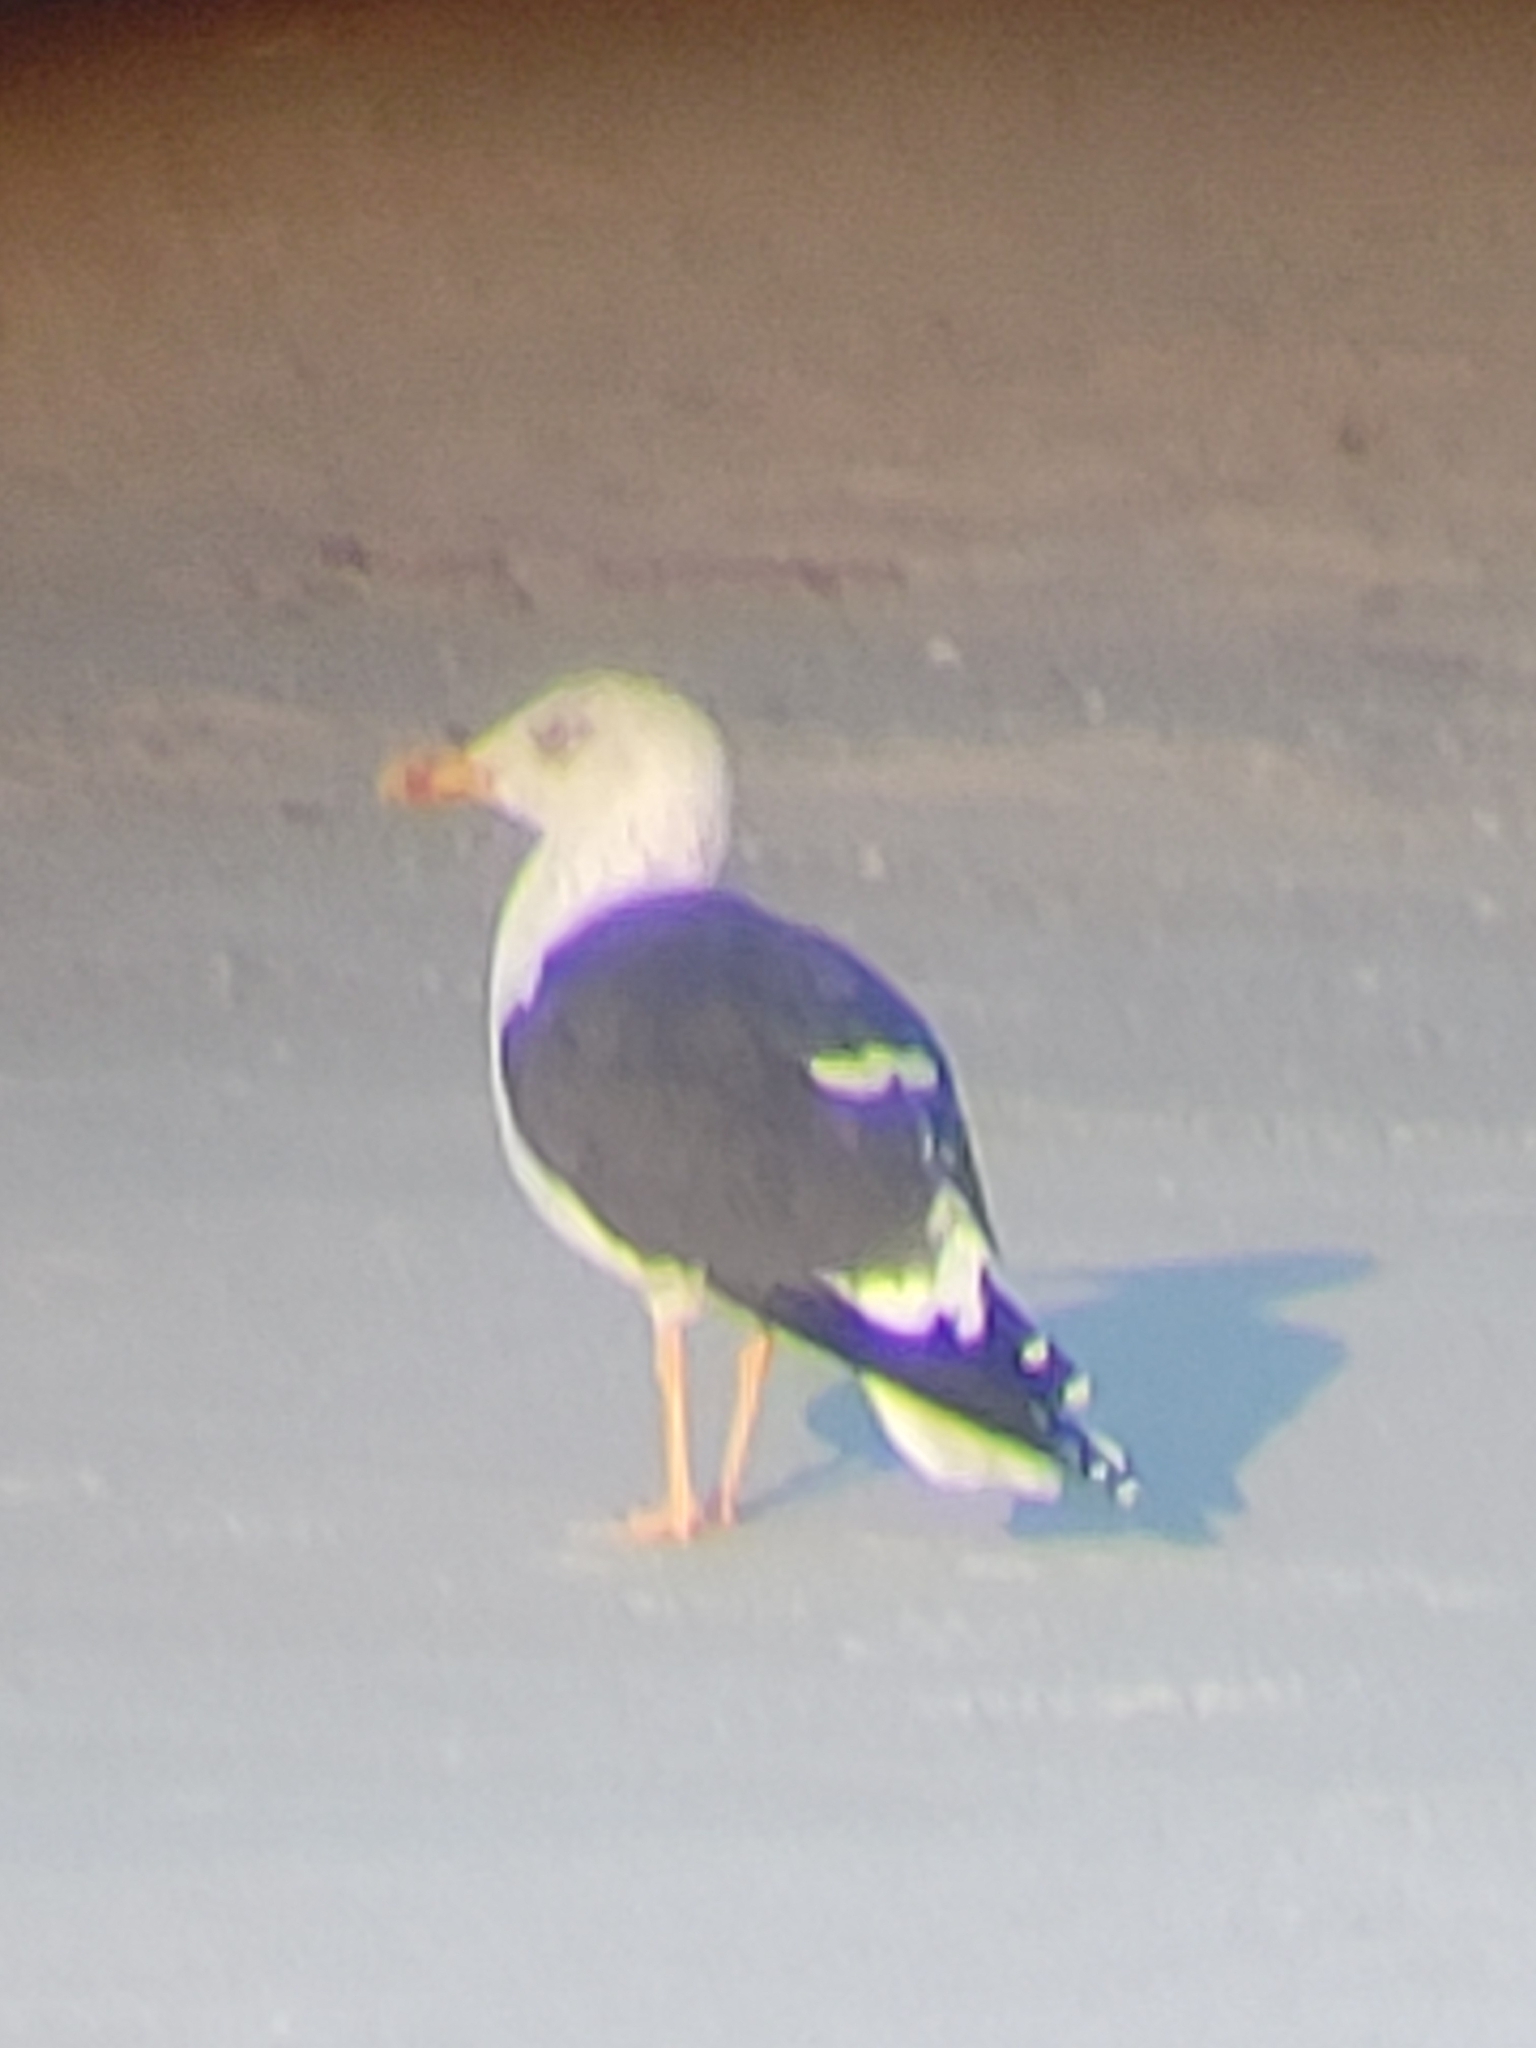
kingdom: Animalia
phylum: Chordata
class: Aves
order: Charadriiformes
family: Laridae
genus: Larus
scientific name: Larus fuscus
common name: Lesser black-backed gull
